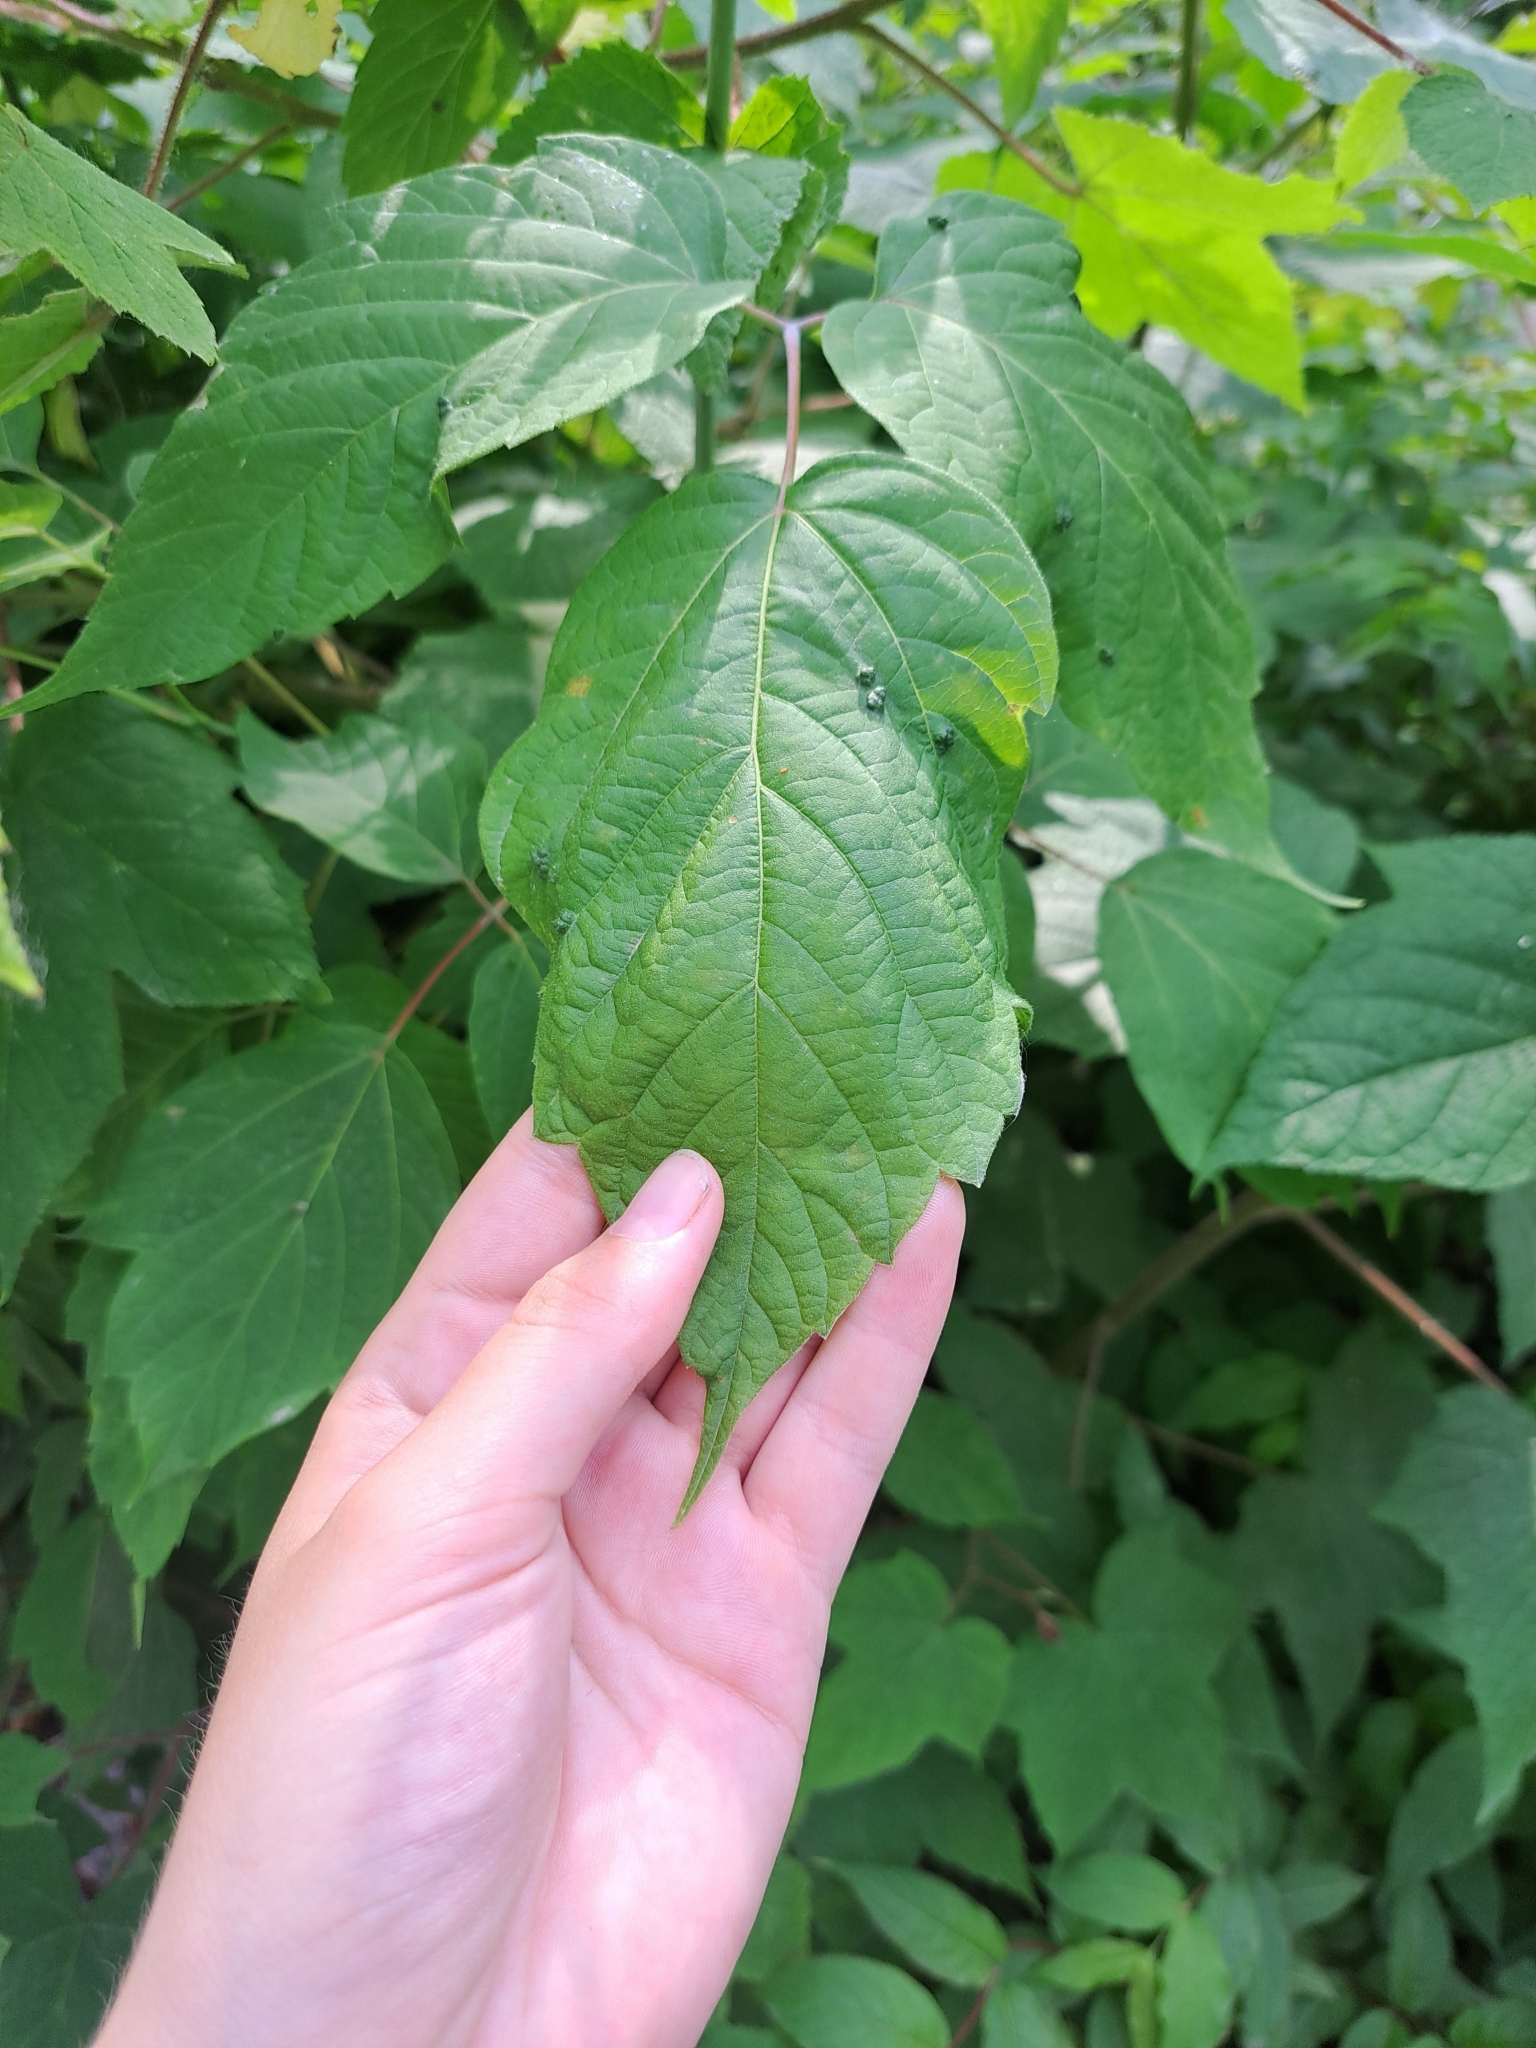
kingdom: Animalia
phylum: Arthropoda
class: Arachnida
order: Trombidiformes
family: Eriophyidae
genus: Aceria
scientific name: Aceria
